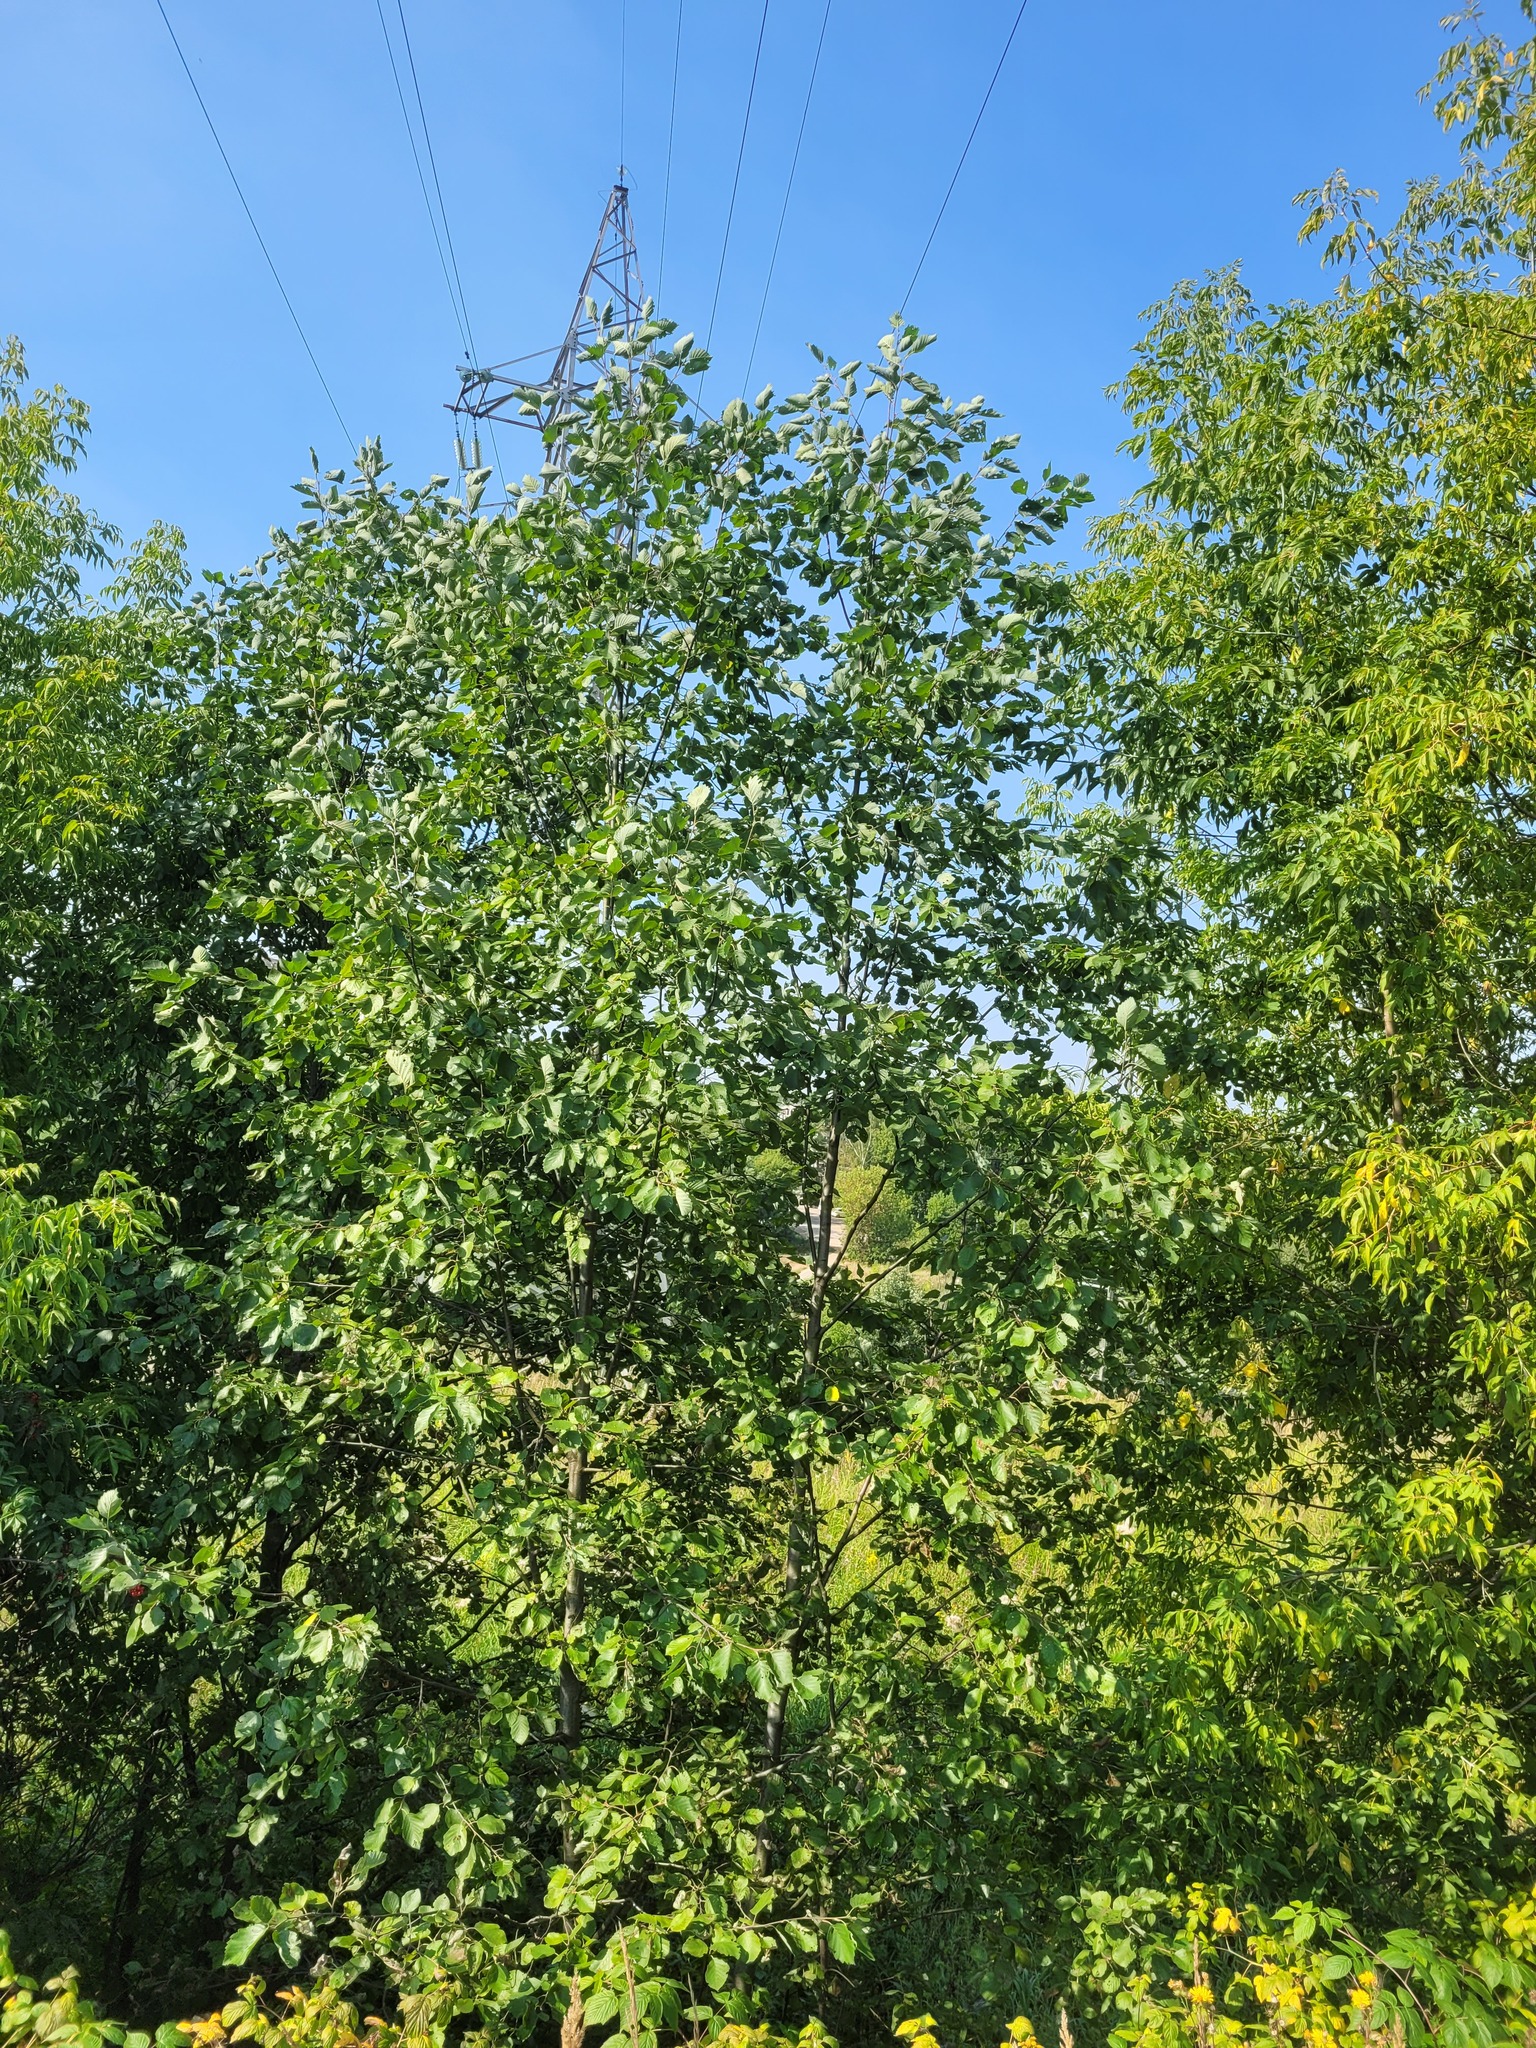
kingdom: Plantae
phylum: Tracheophyta
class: Magnoliopsida
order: Fagales
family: Betulaceae
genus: Alnus
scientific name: Alnus incana
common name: Grey alder
